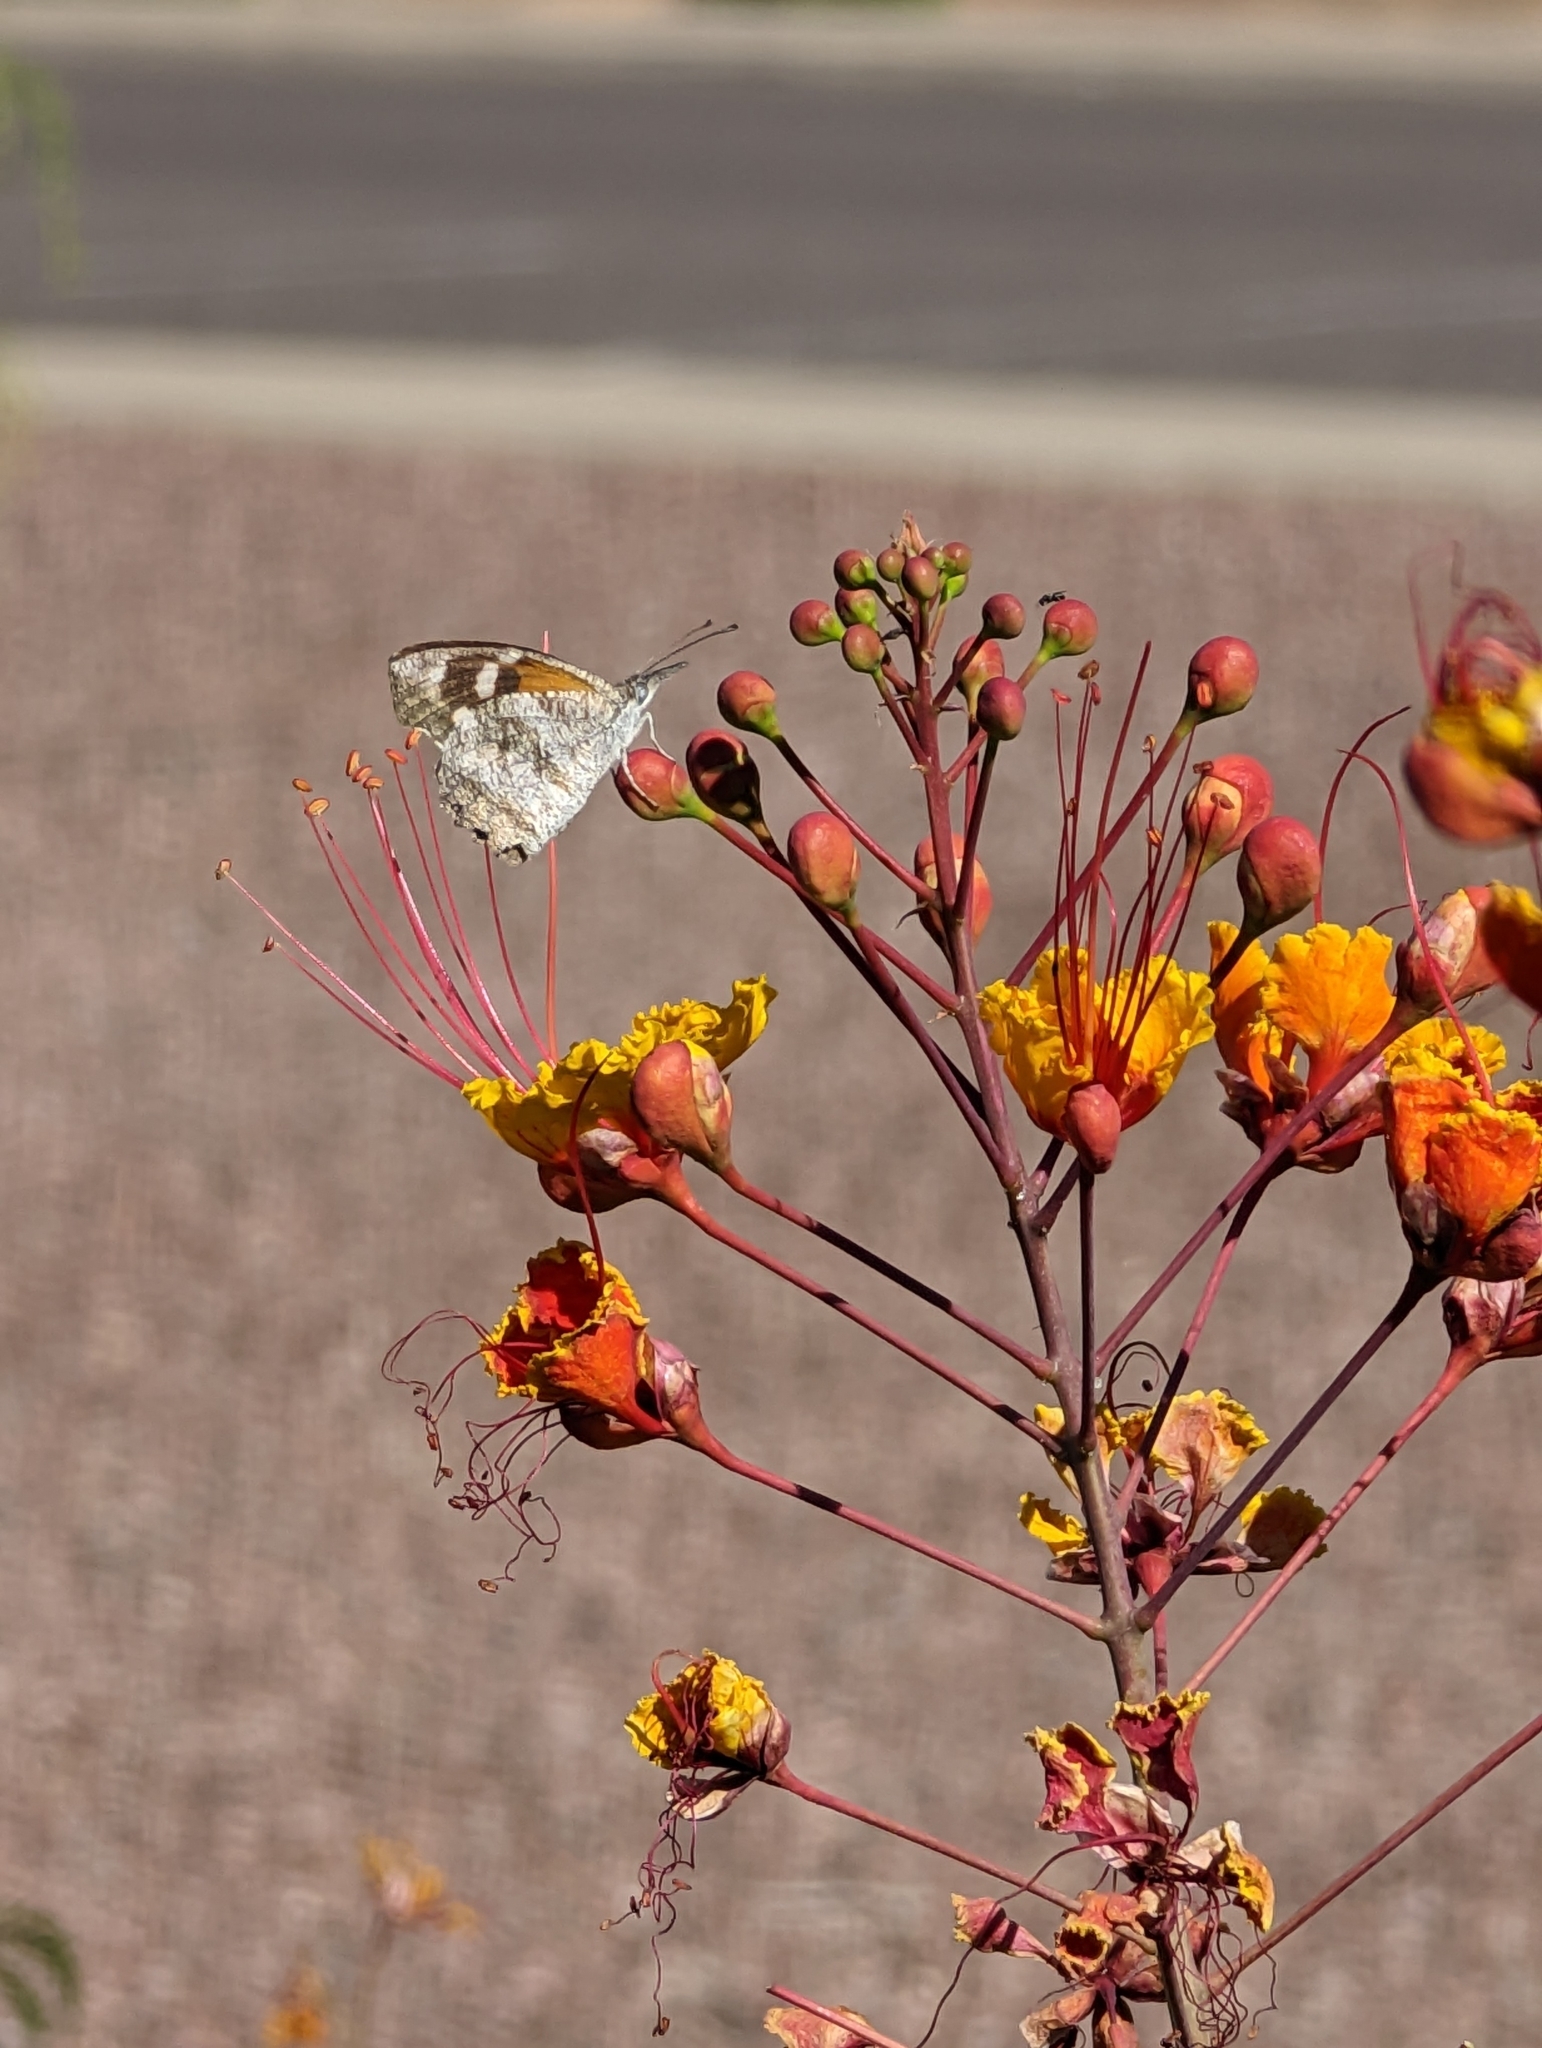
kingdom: Animalia
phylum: Arthropoda
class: Insecta
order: Lepidoptera
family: Nymphalidae
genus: Libytheana
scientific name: Libytheana carinenta
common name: American snout
